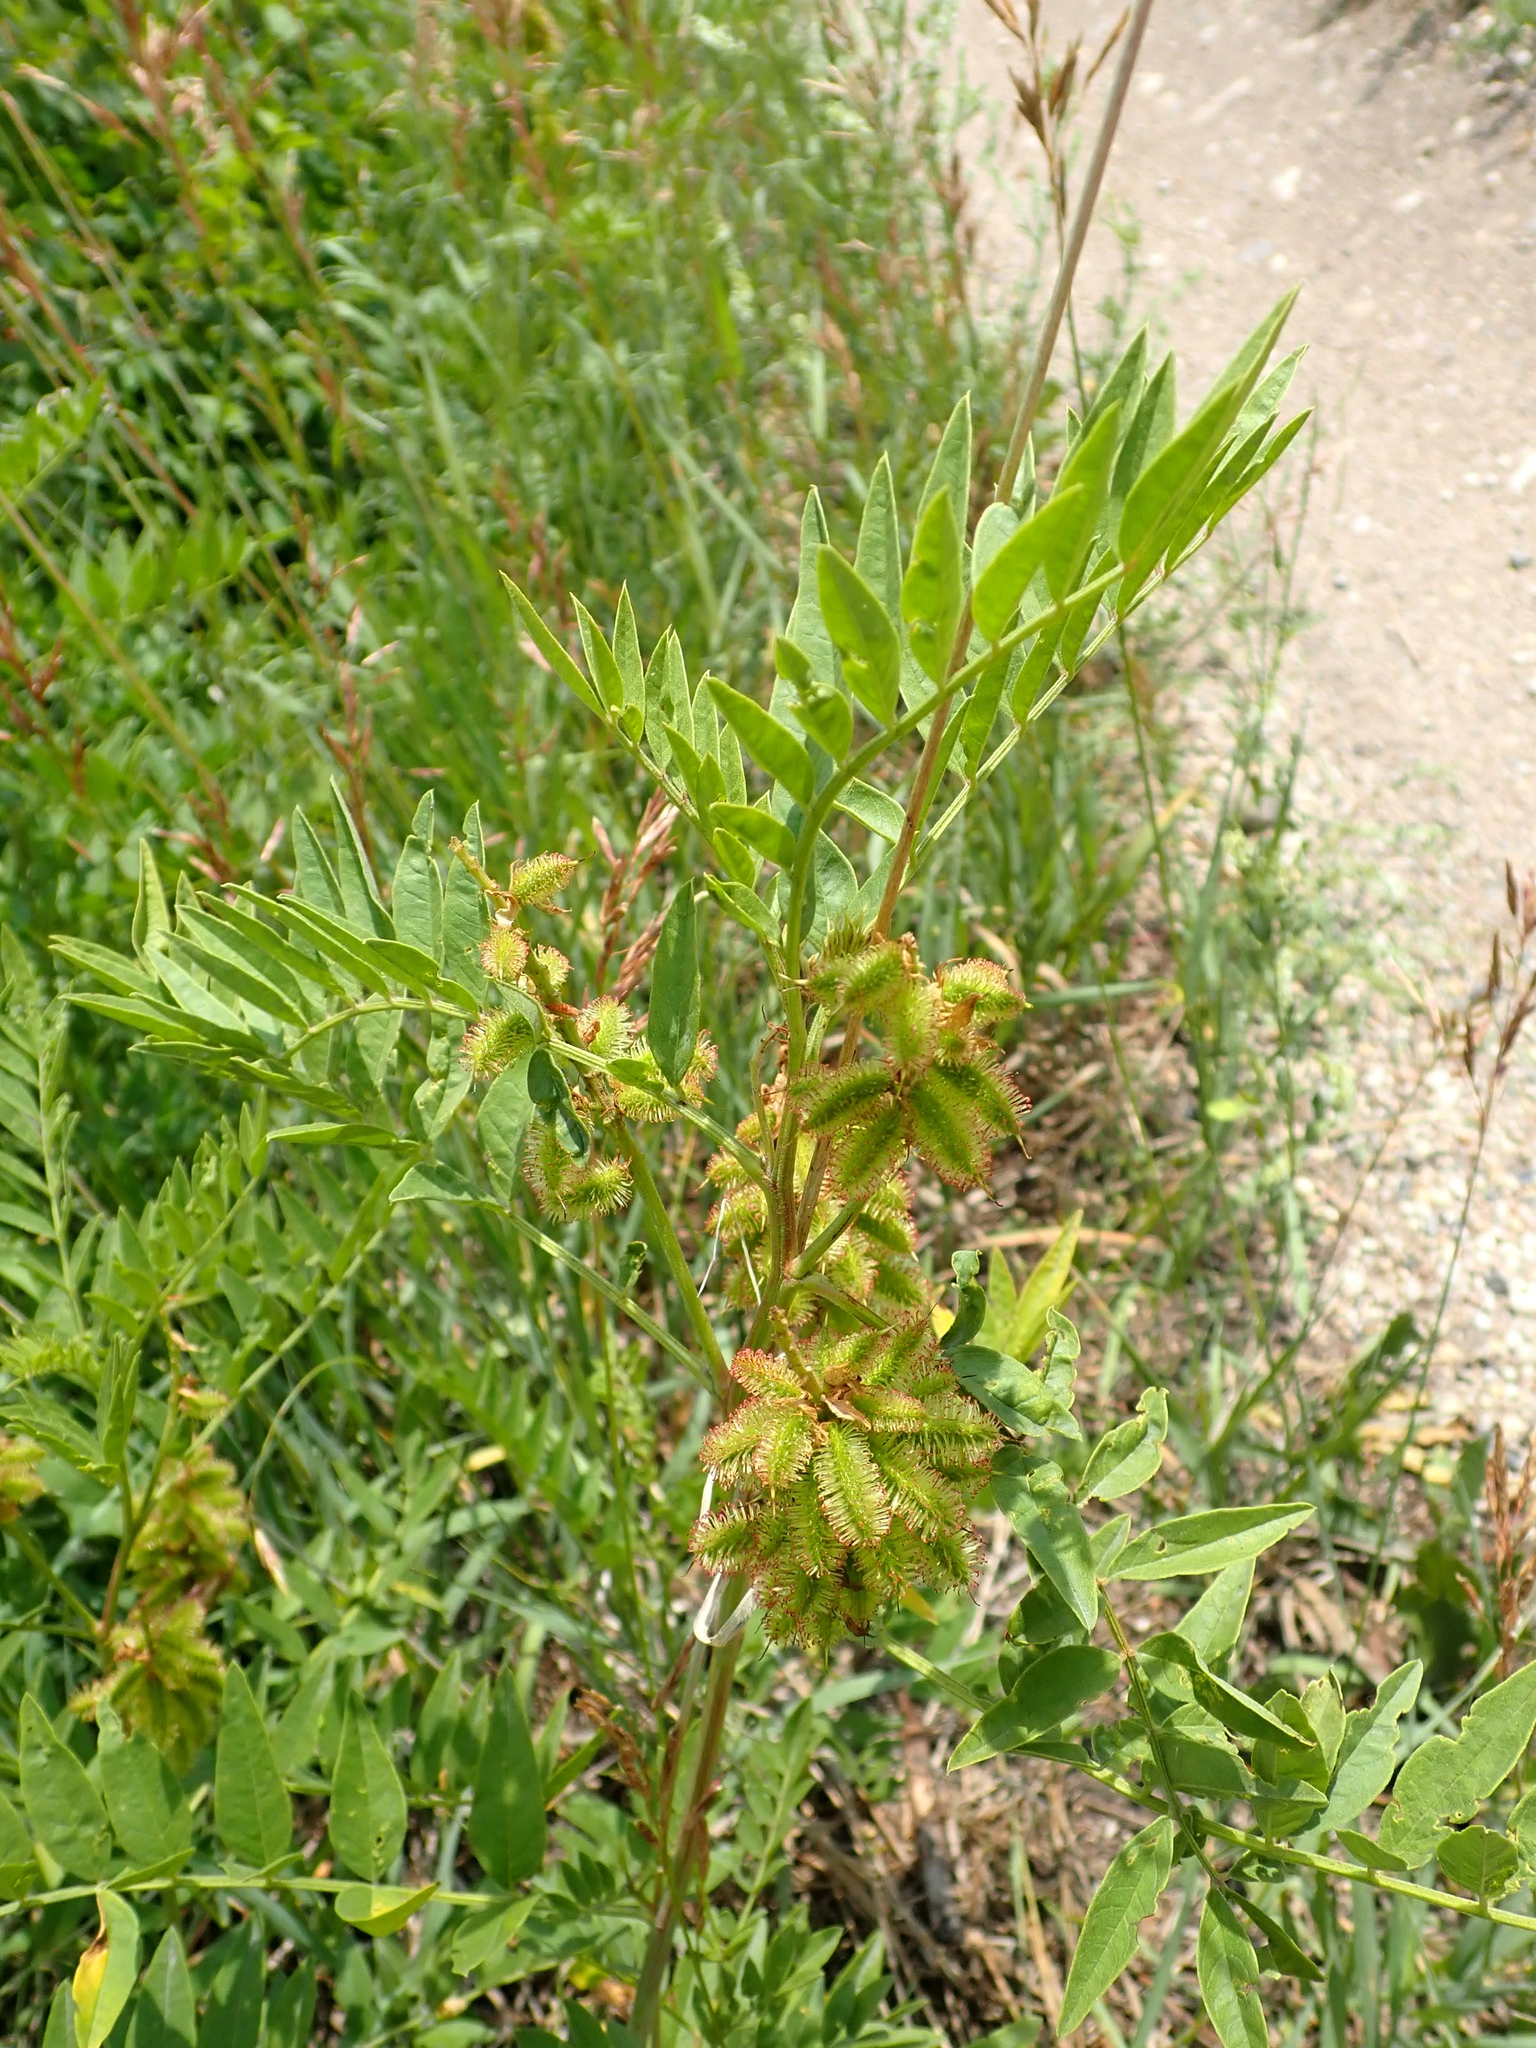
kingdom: Plantae
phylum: Tracheophyta
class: Magnoliopsida
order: Fabales
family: Fabaceae
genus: Glycyrrhiza
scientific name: Glycyrrhiza lepidota
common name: American liquorice
